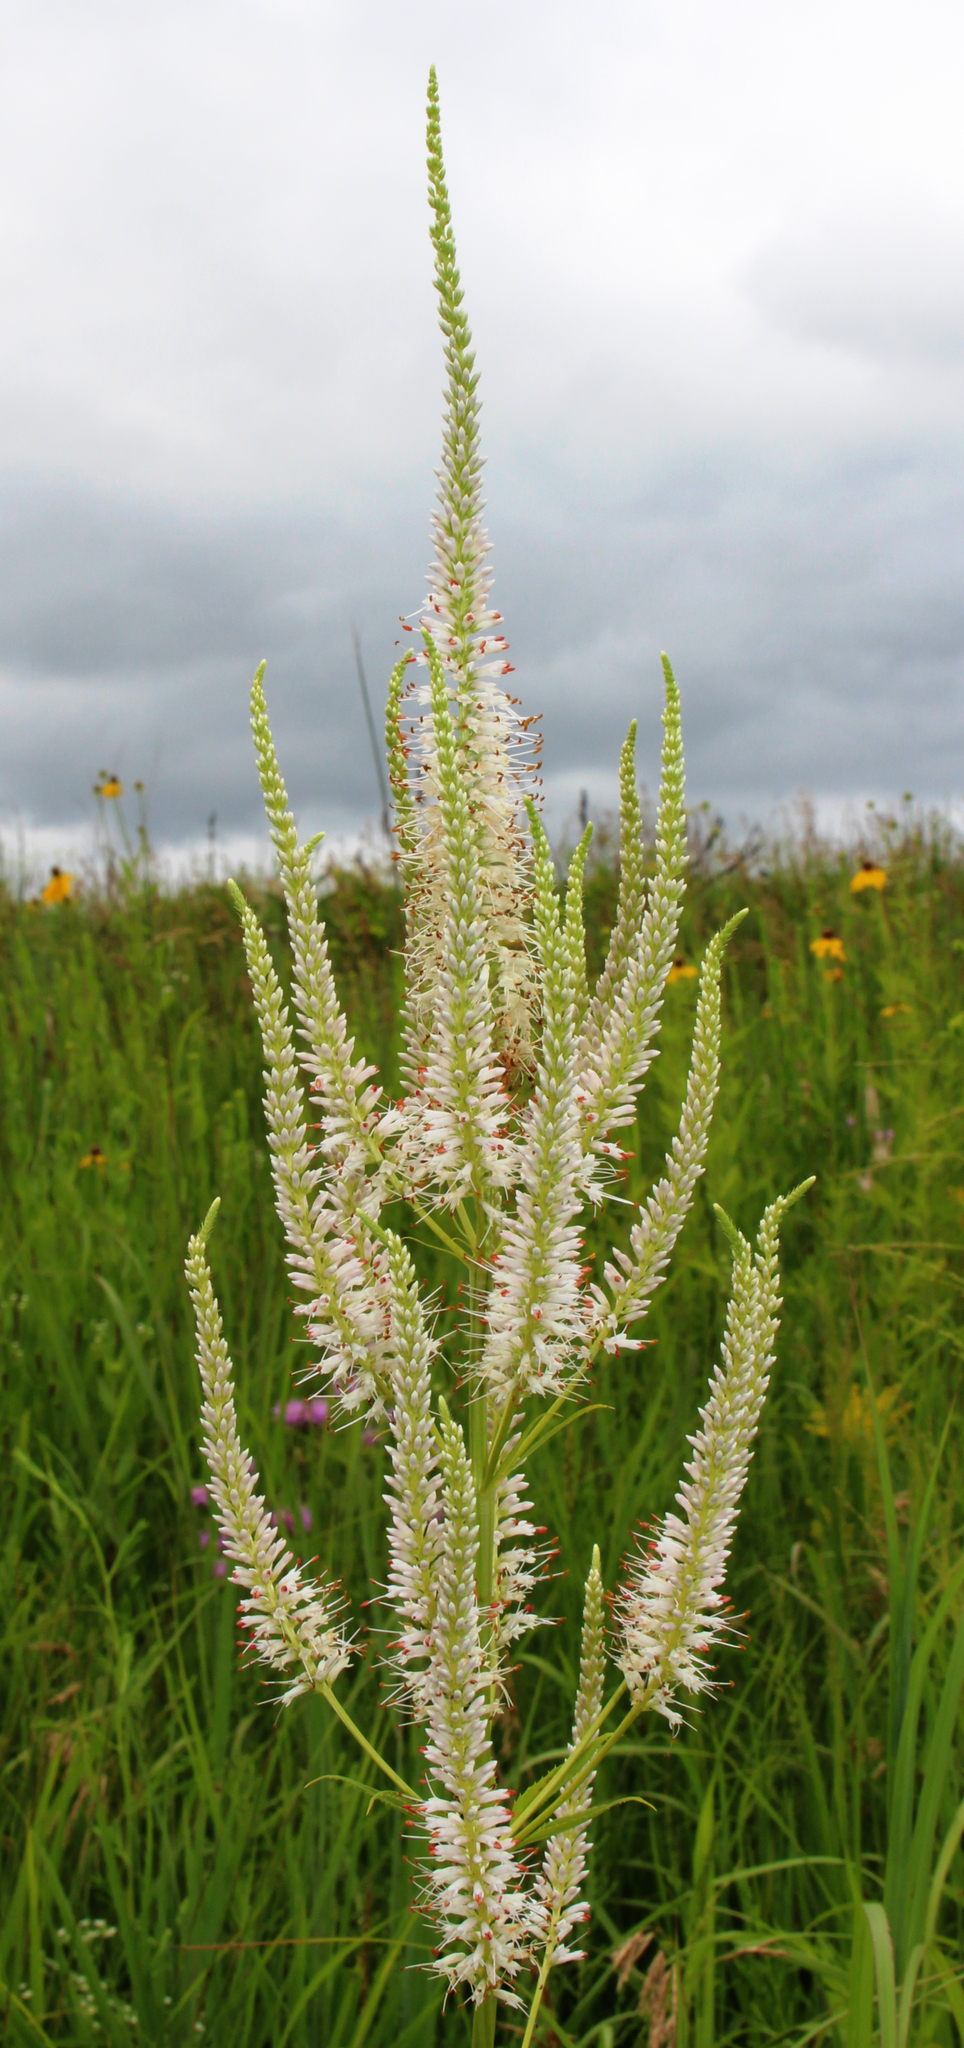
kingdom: Plantae
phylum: Tracheophyta
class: Magnoliopsida
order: Lamiales
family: Plantaginaceae
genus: Veronicastrum
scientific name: Veronicastrum virginicum
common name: Blackroot
